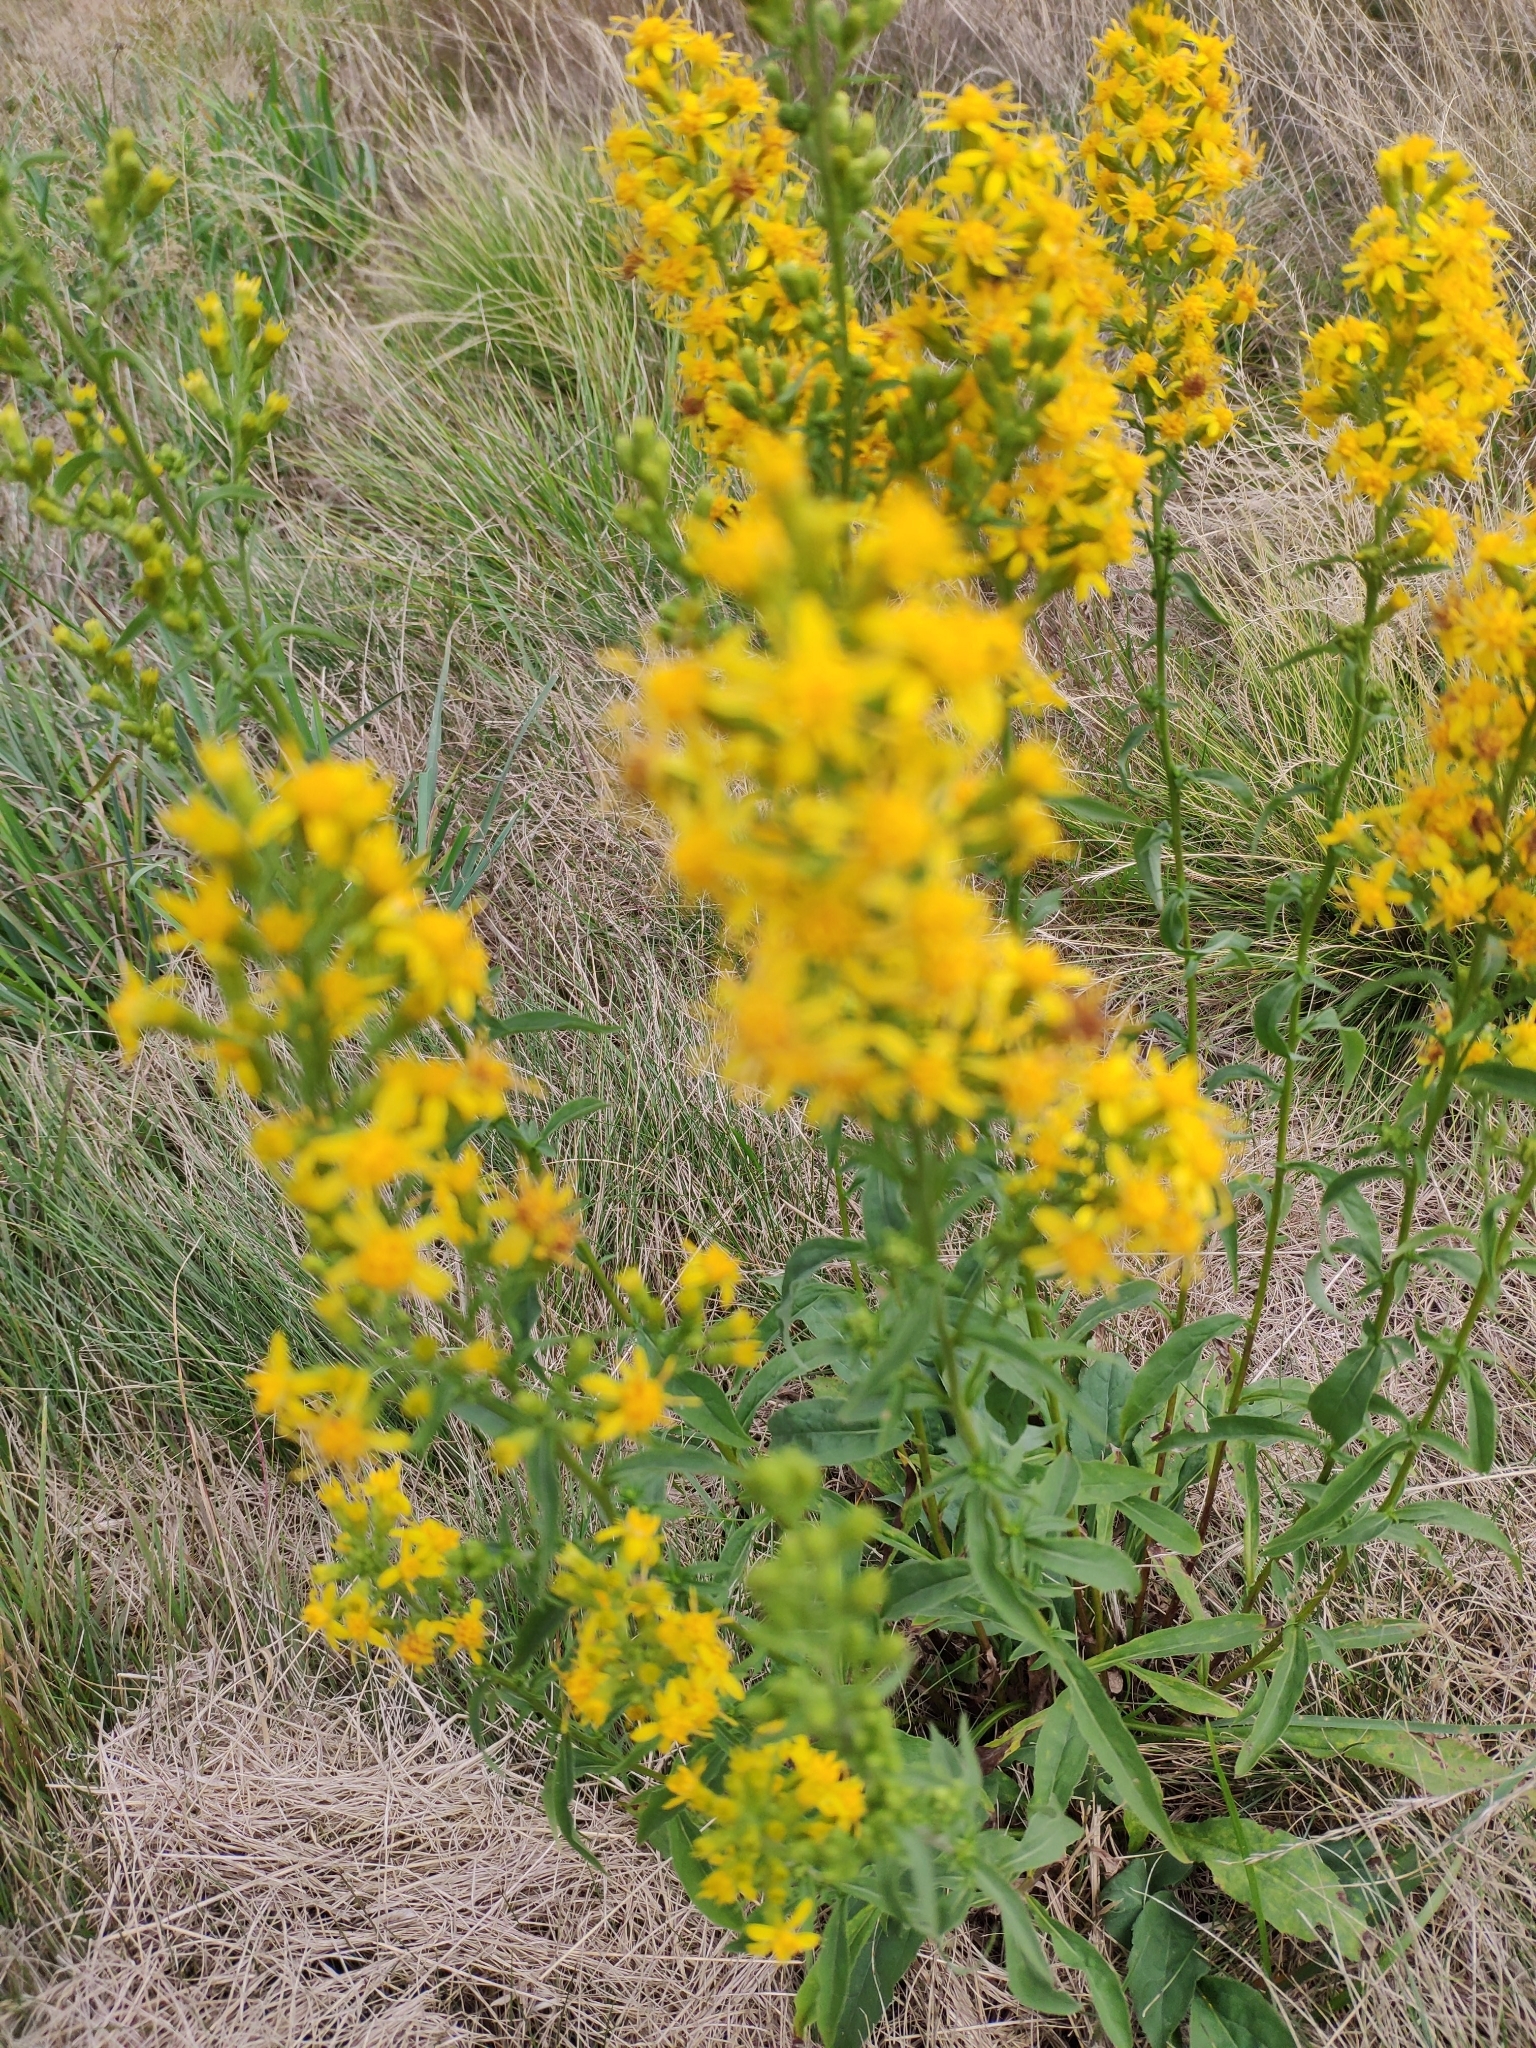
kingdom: Plantae
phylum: Tracheophyta
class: Magnoliopsida
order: Asterales
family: Asteraceae
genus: Solidago
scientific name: Solidago virgaurea
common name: Goldenrod
